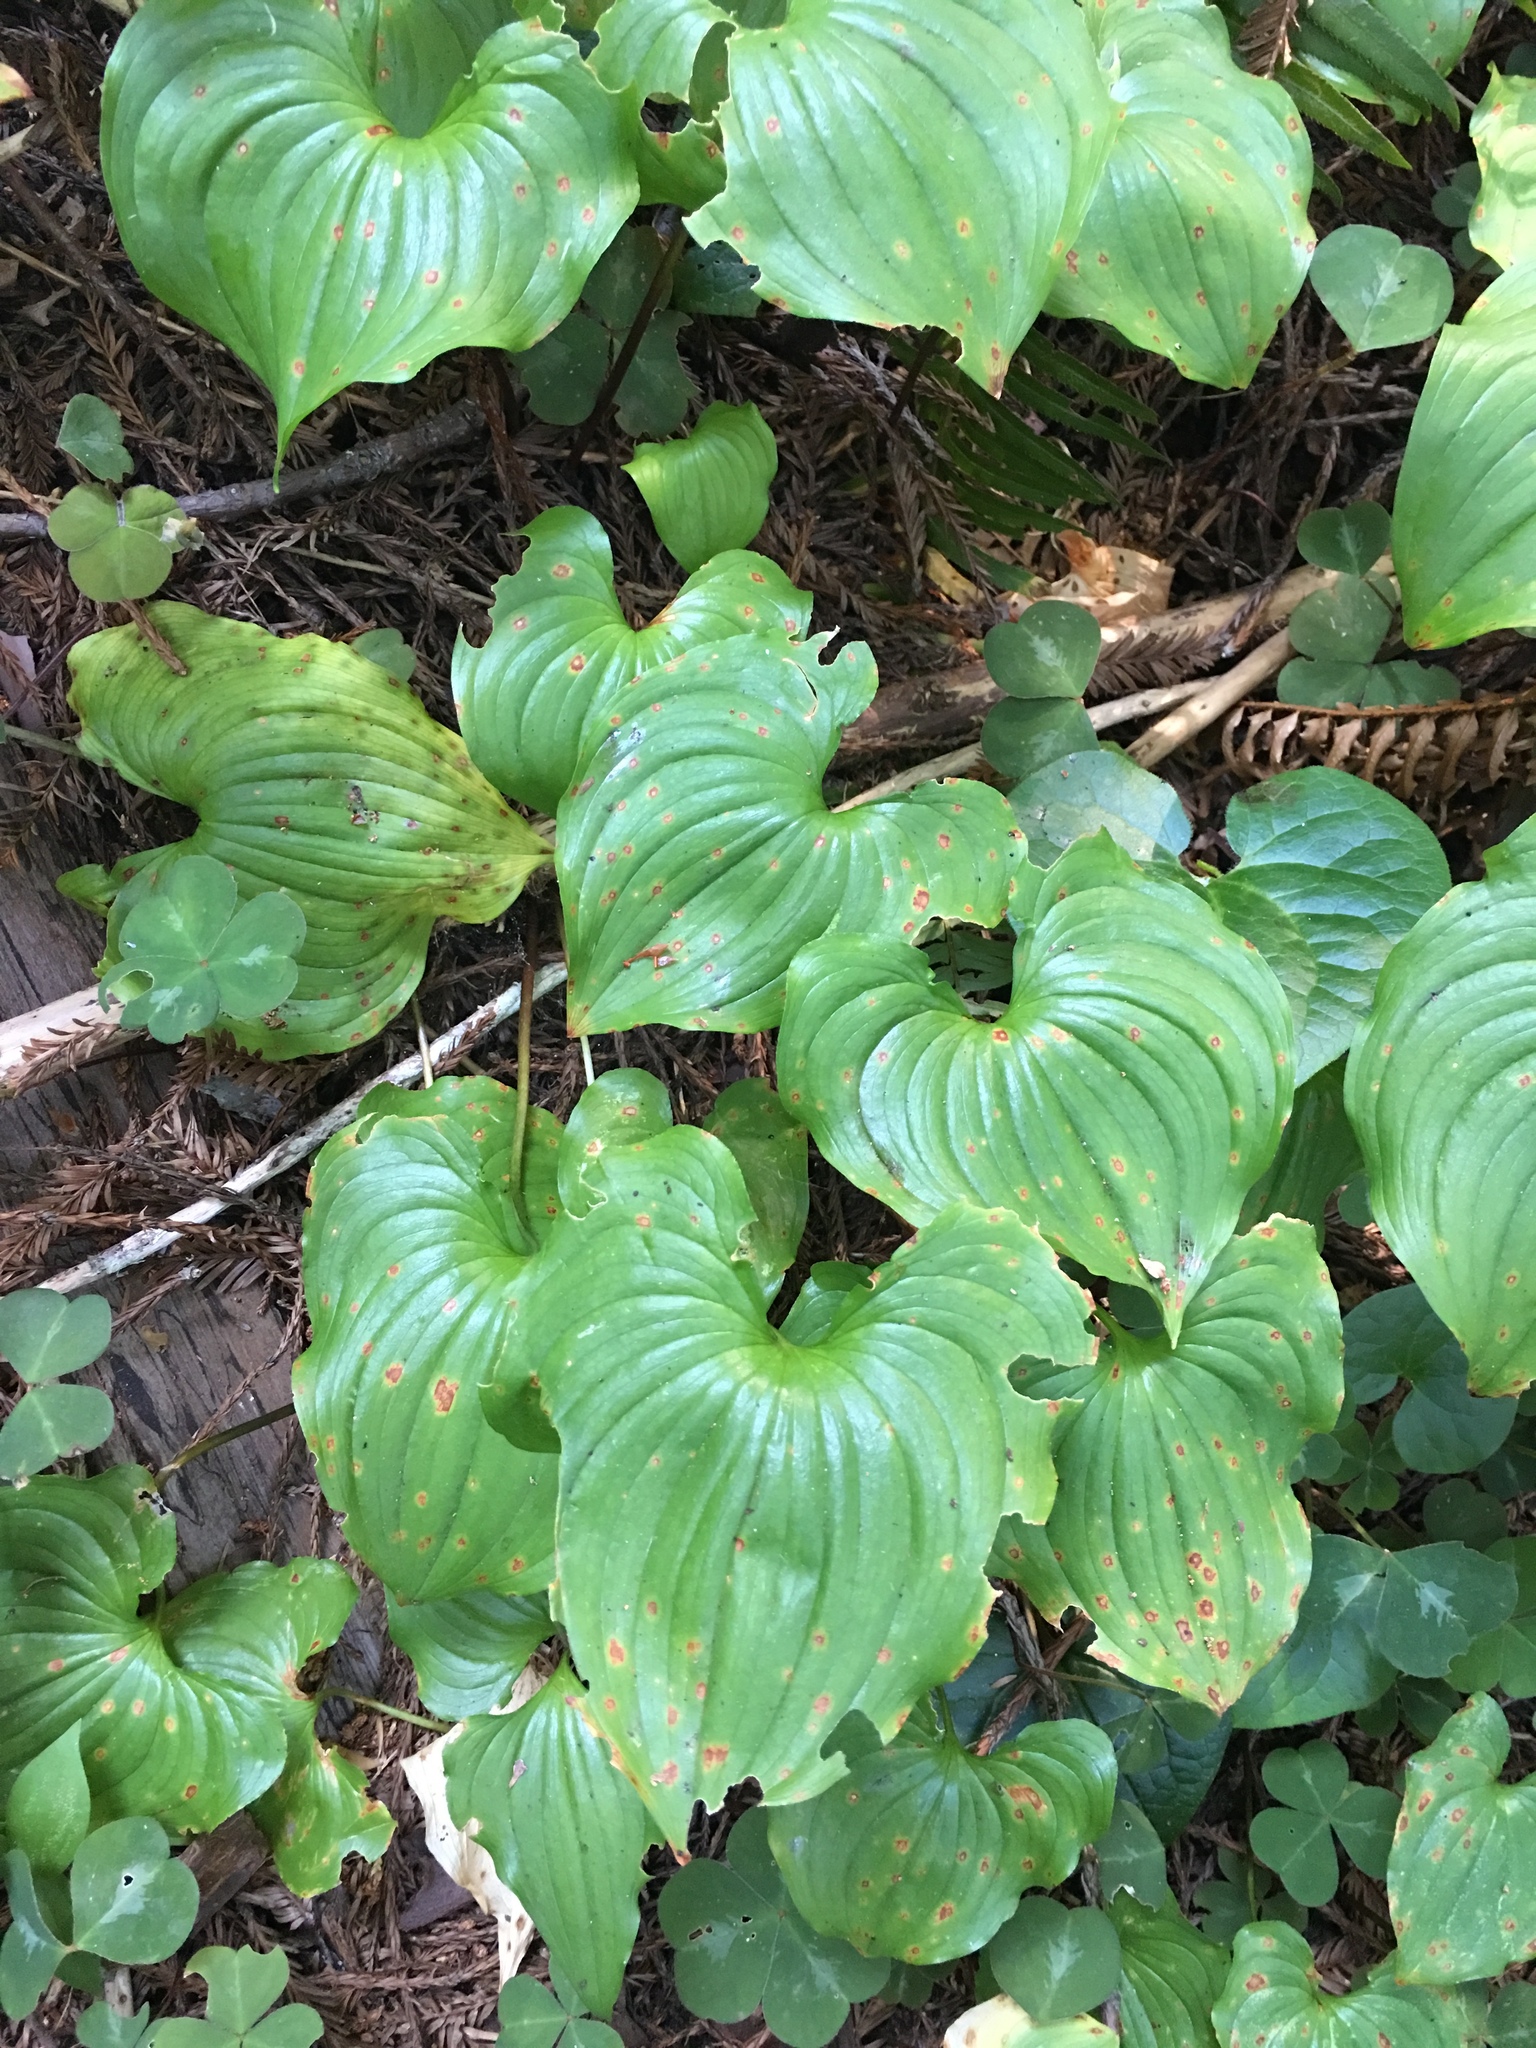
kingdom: Plantae
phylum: Tracheophyta
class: Liliopsida
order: Asparagales
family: Asparagaceae
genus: Maianthemum
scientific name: Maianthemum dilatatum
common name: False lily-of-the-valley
